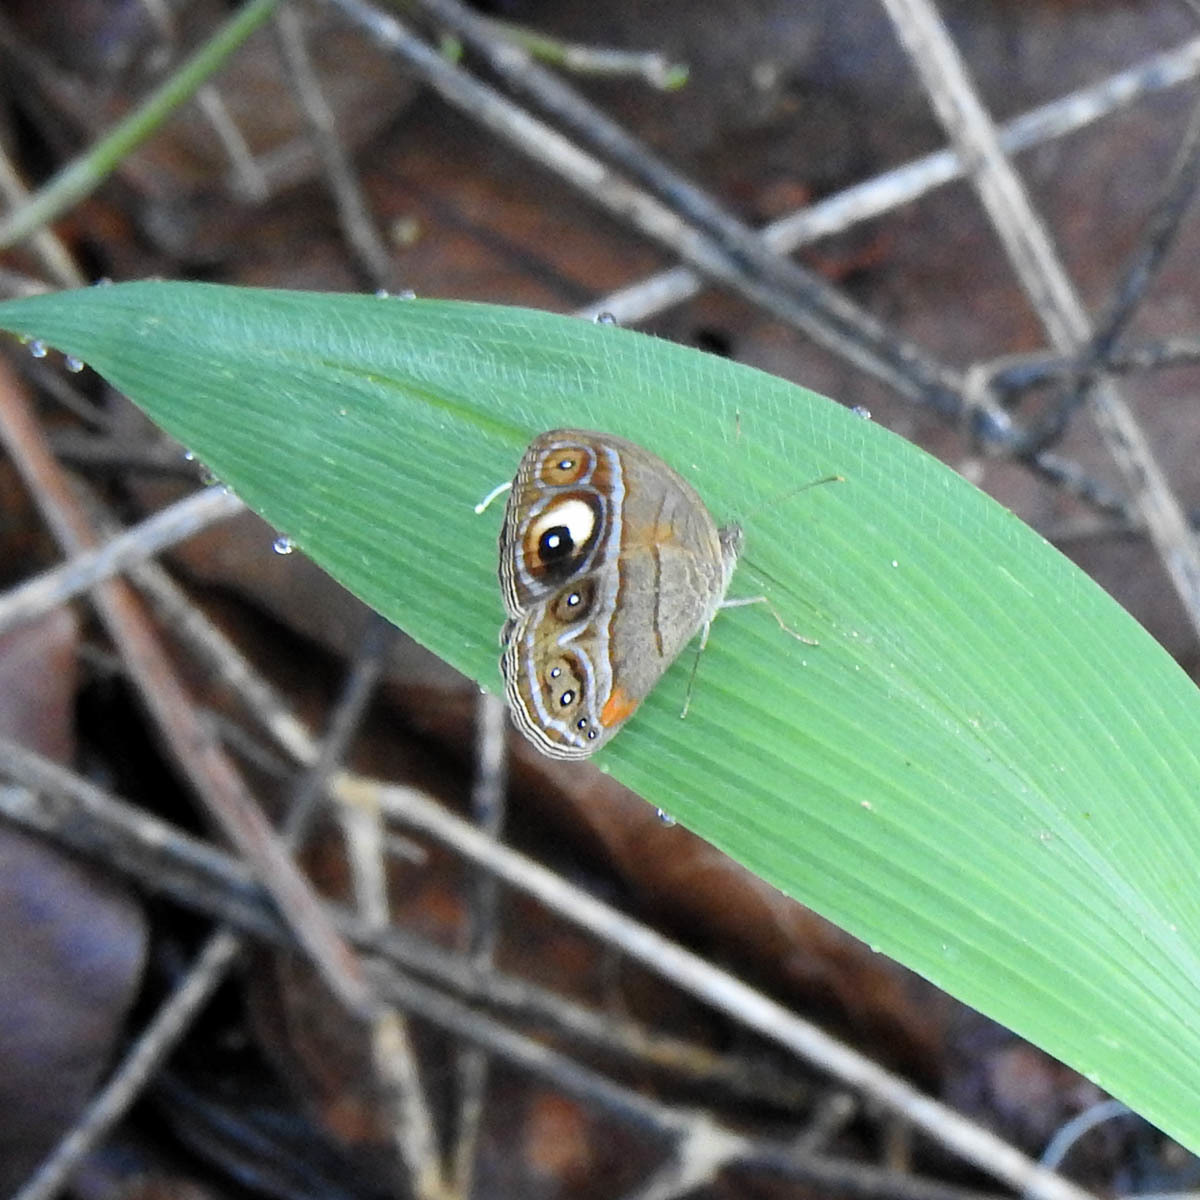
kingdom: Animalia
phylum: Arthropoda
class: Insecta
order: Lepidoptera
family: Nymphalidae
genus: Mycalesis
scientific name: Mycalesis patnia
